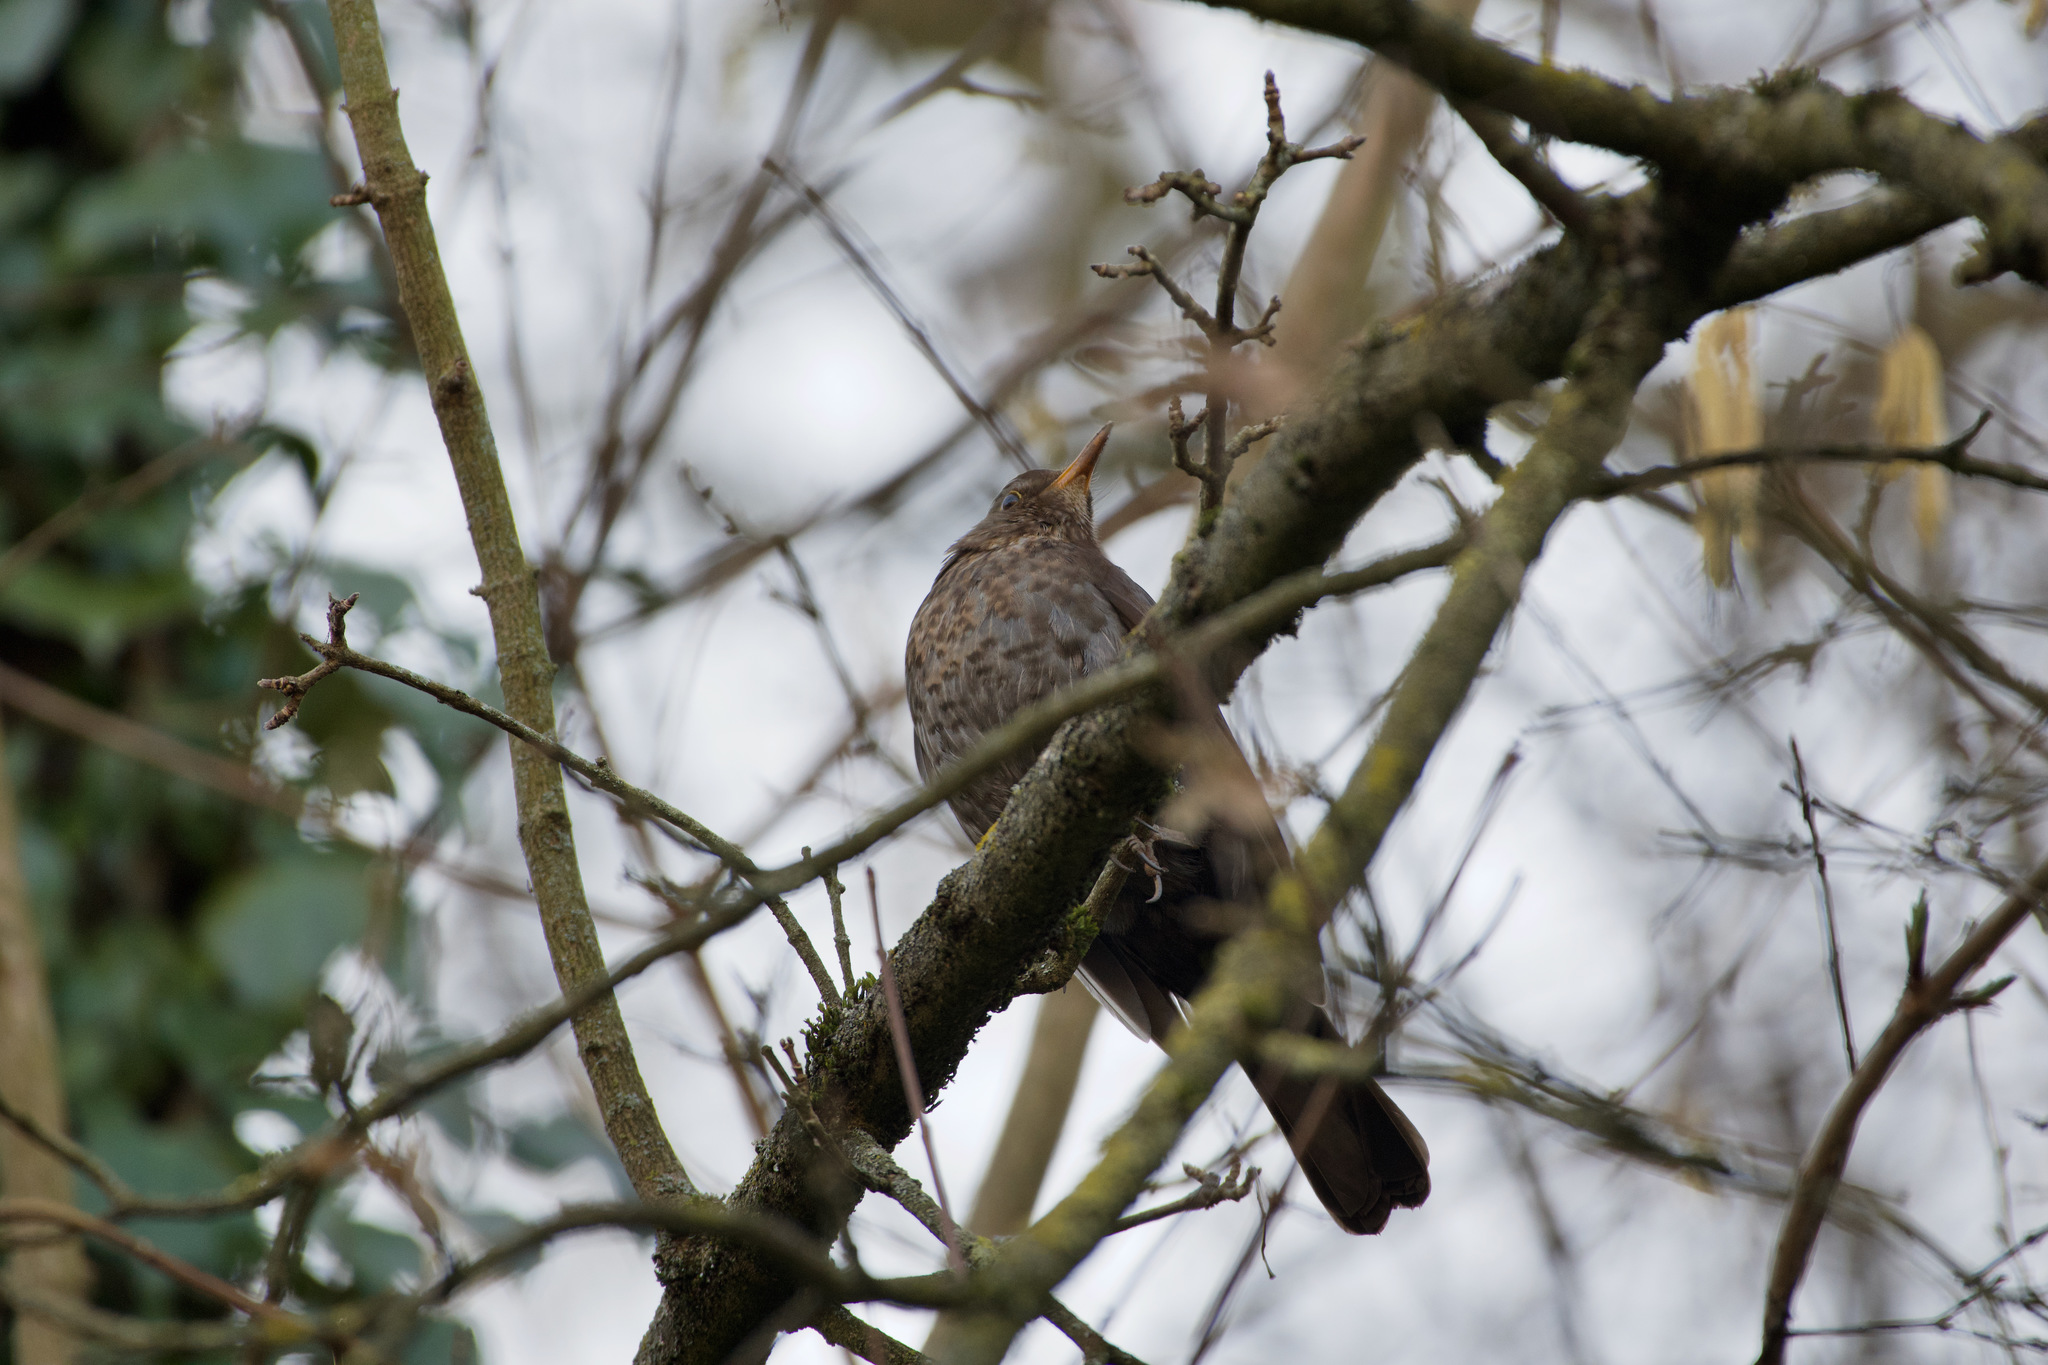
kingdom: Animalia
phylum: Chordata
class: Aves
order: Passeriformes
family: Turdidae
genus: Turdus
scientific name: Turdus merula
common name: Common blackbird
